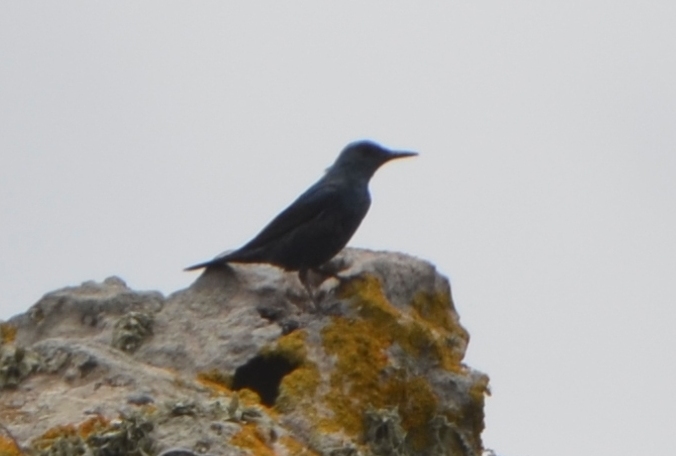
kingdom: Animalia
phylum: Chordata
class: Aves
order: Passeriformes
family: Muscicapidae
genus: Monticola
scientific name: Monticola solitarius
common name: Blue rock thrush
